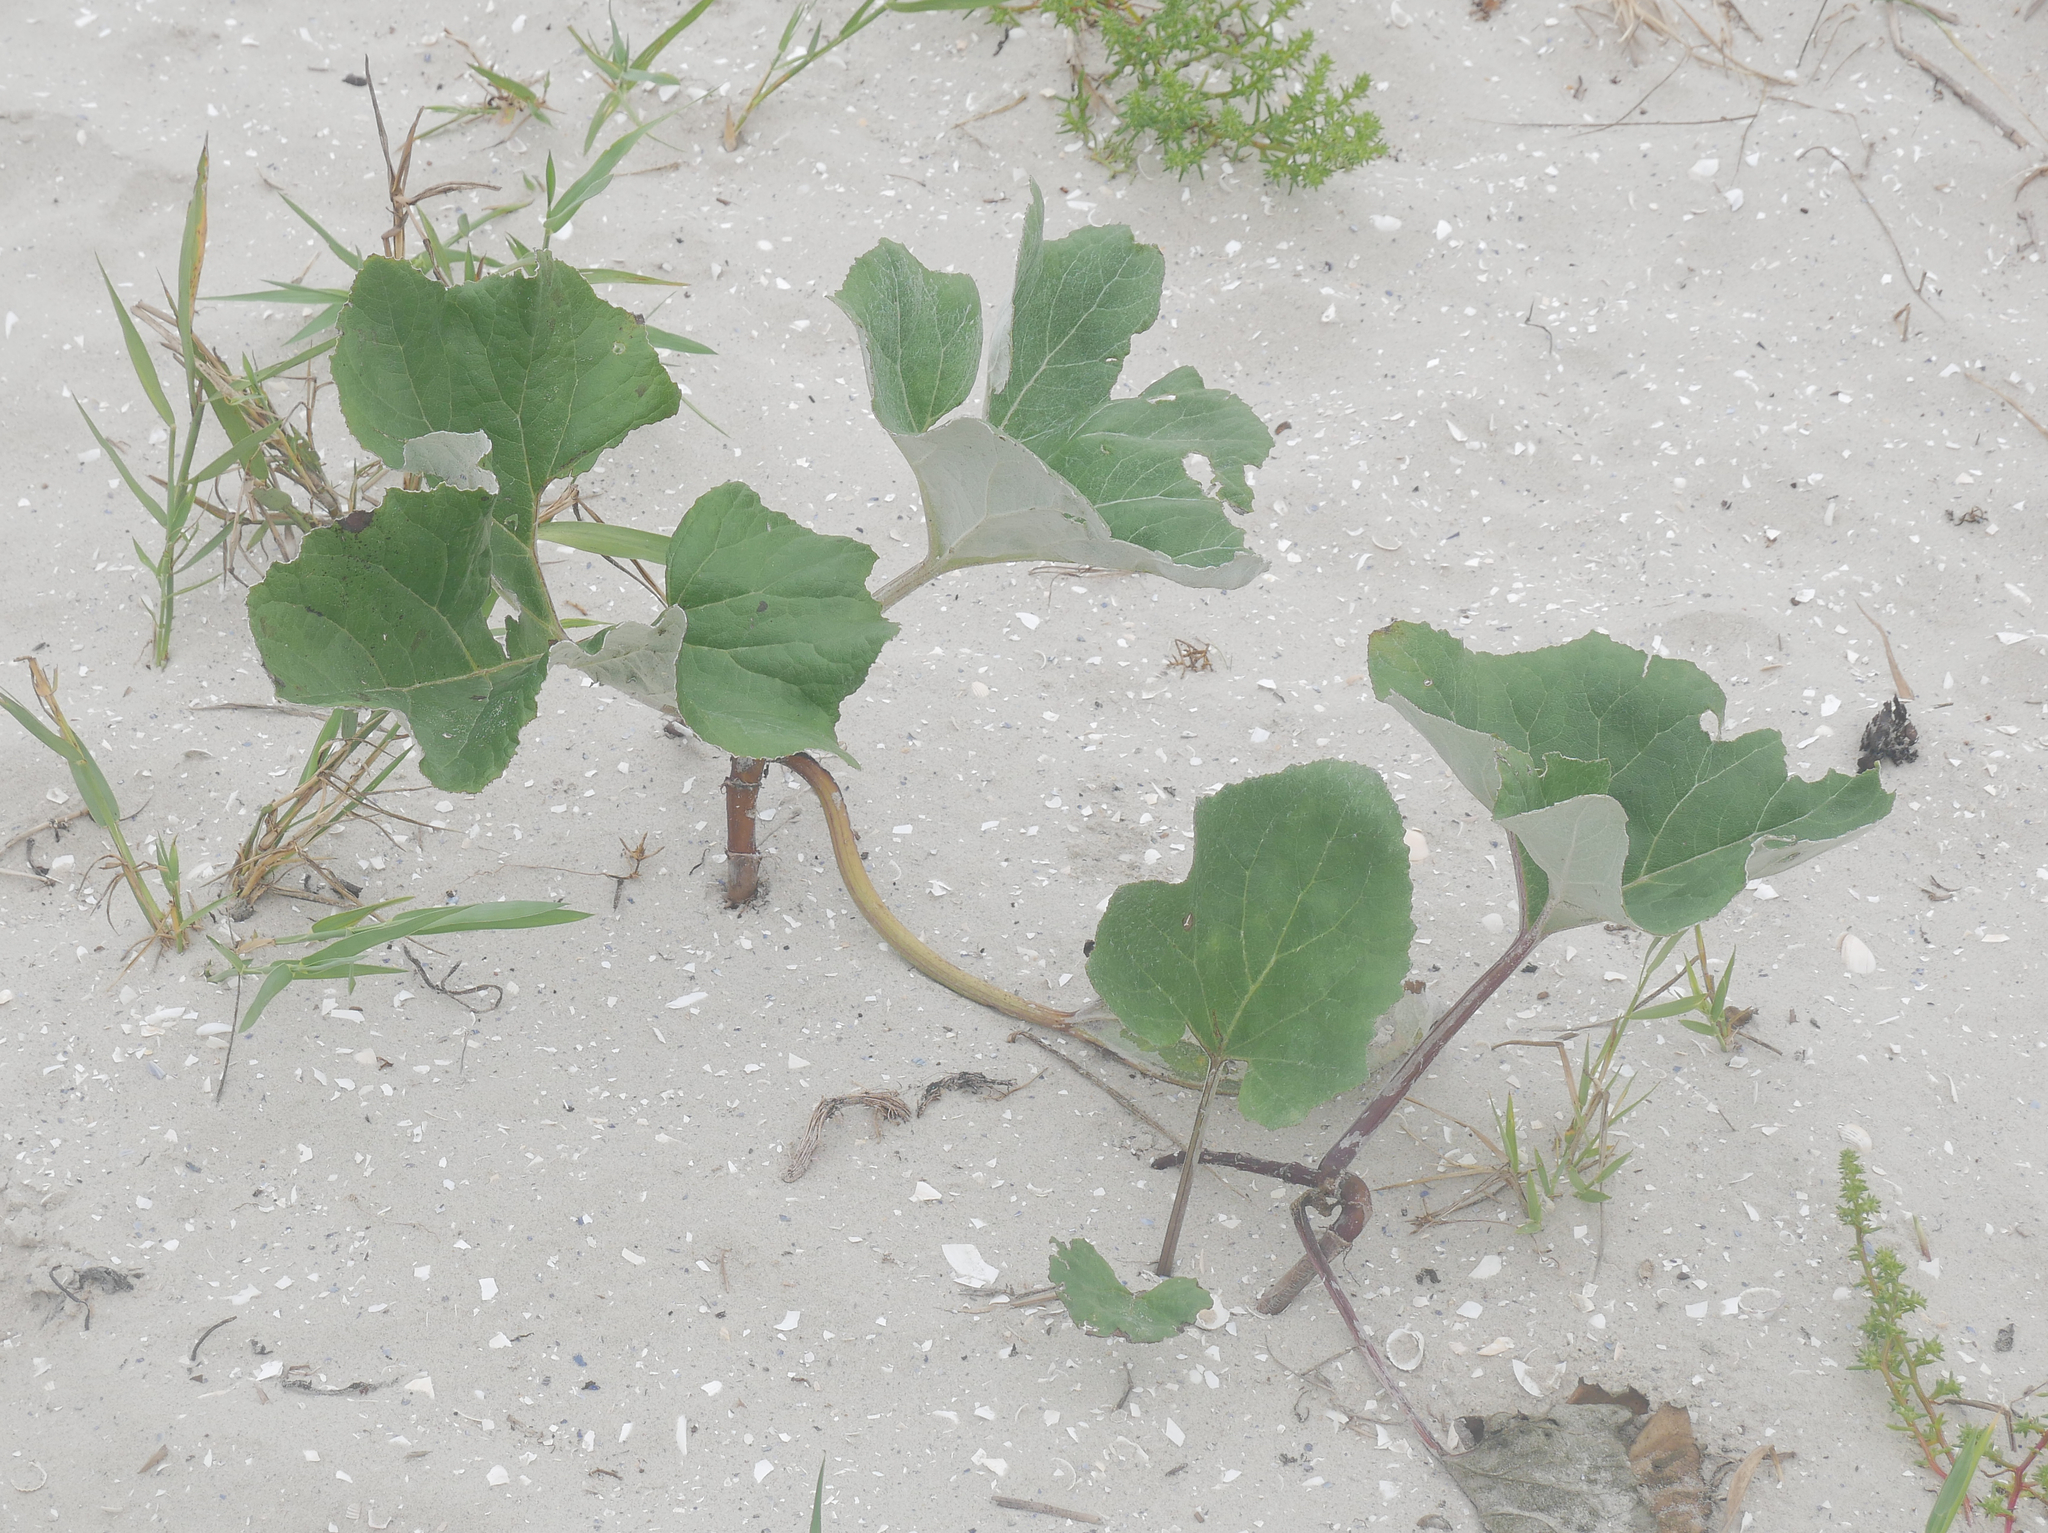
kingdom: Plantae
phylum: Tracheophyta
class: Magnoliopsida
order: Asterales
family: Asteraceae
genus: Petasites
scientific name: Petasites spurius
